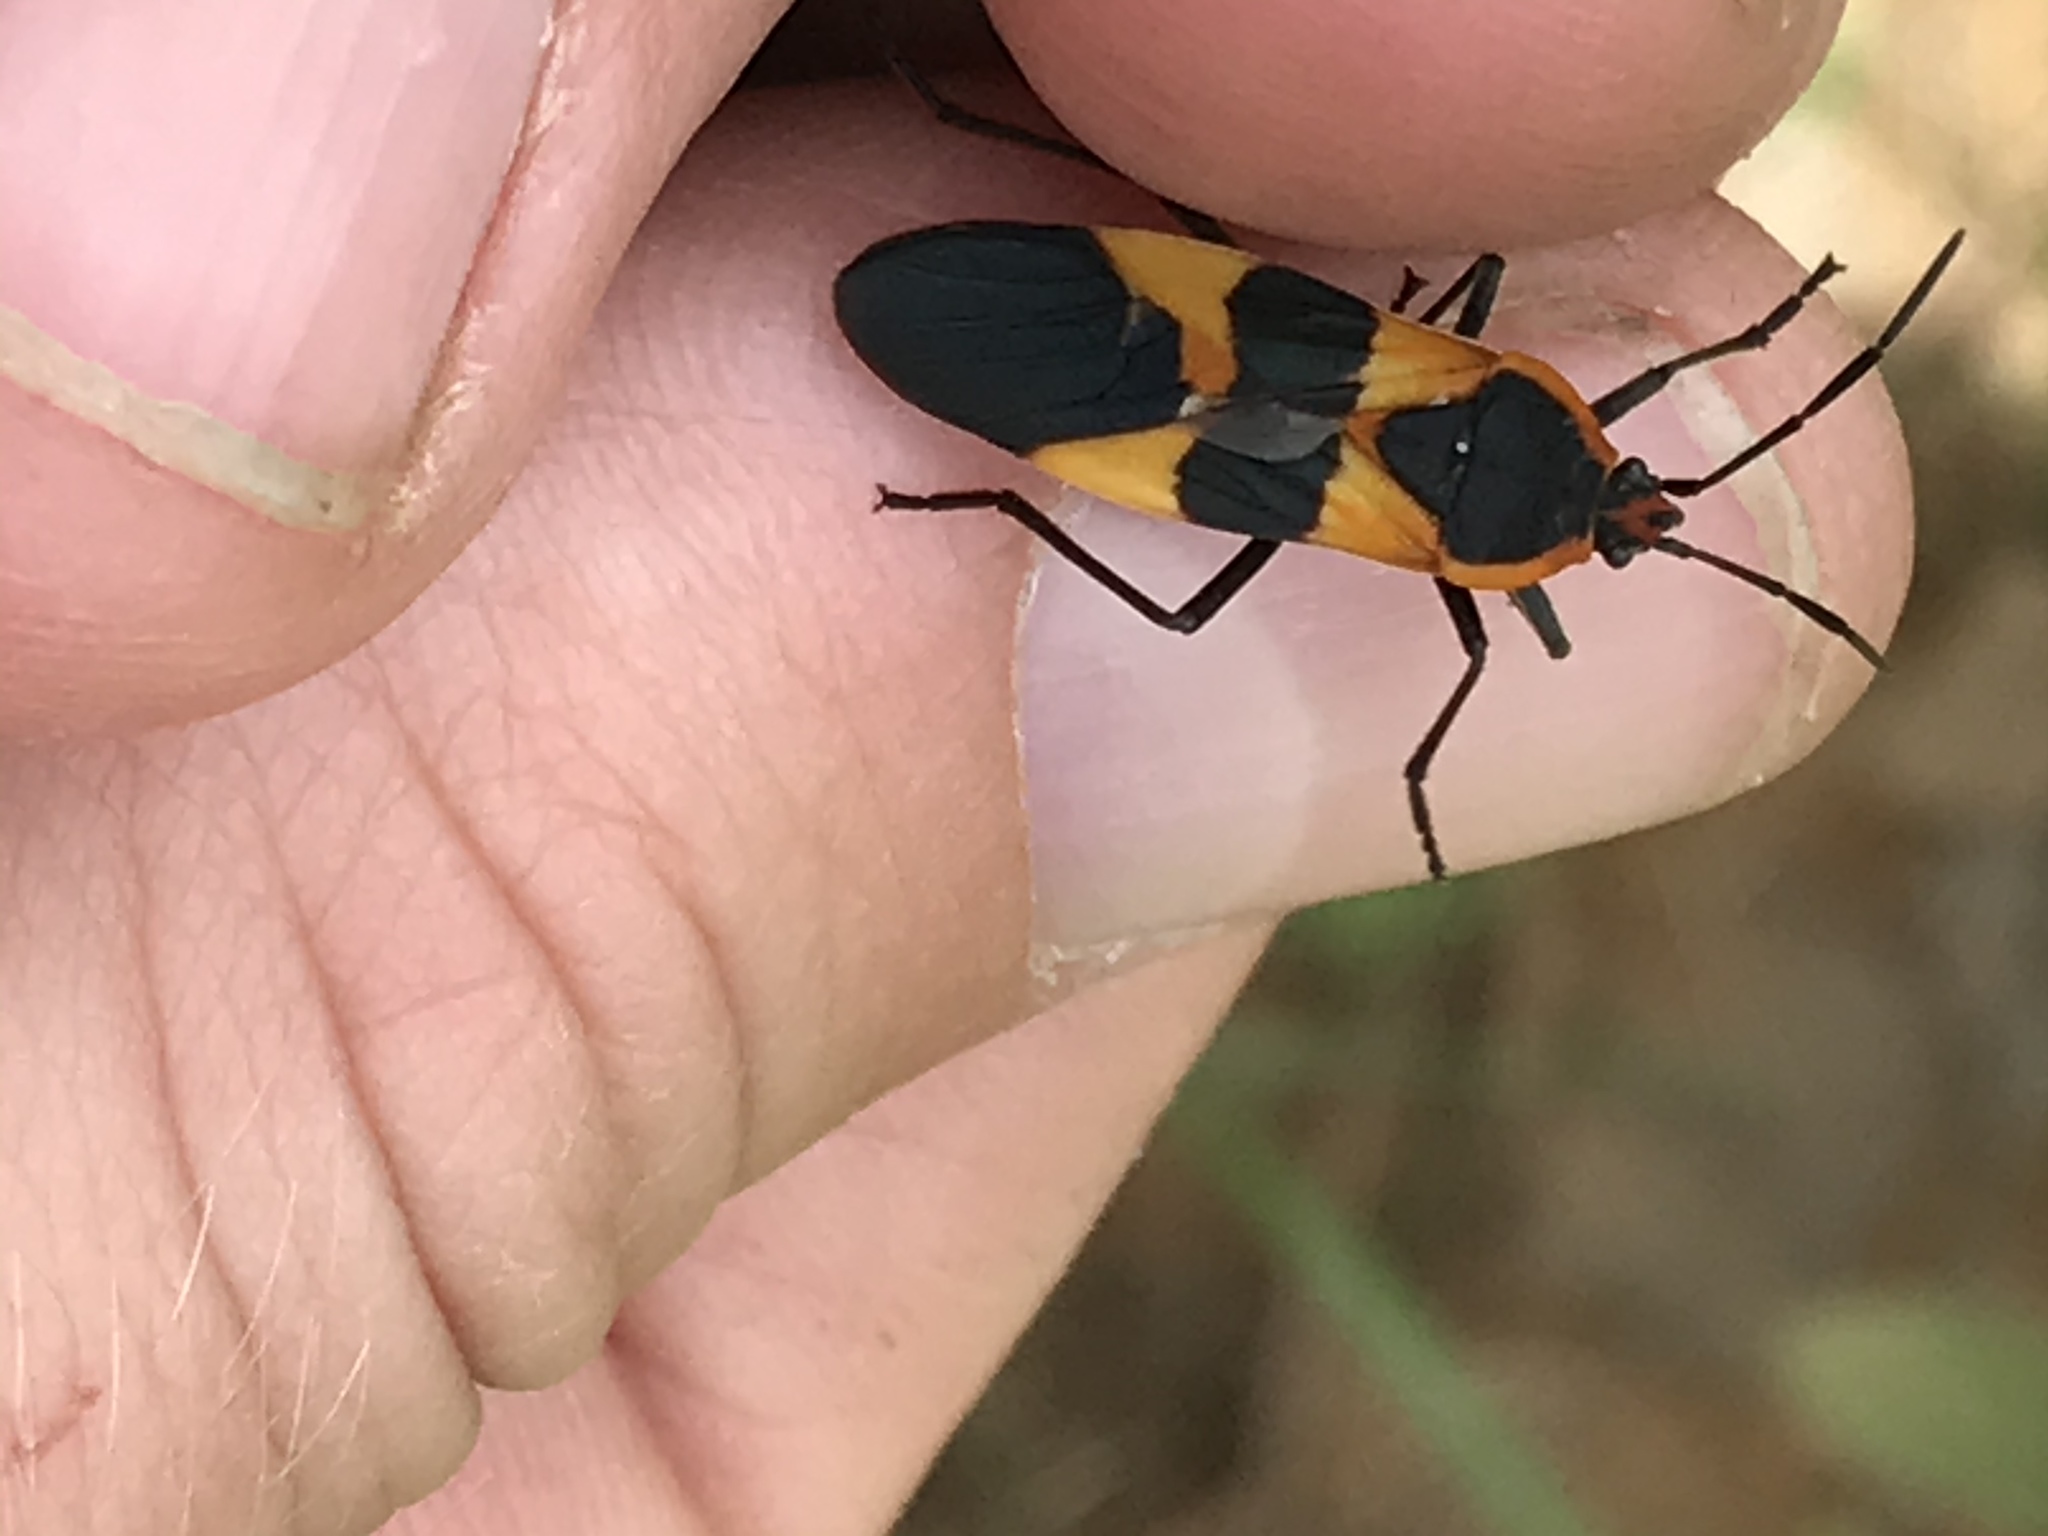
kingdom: Animalia
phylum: Arthropoda
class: Insecta
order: Hemiptera
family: Lygaeidae
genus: Oncopeltus
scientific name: Oncopeltus fasciatus
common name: Large milkweed bug
